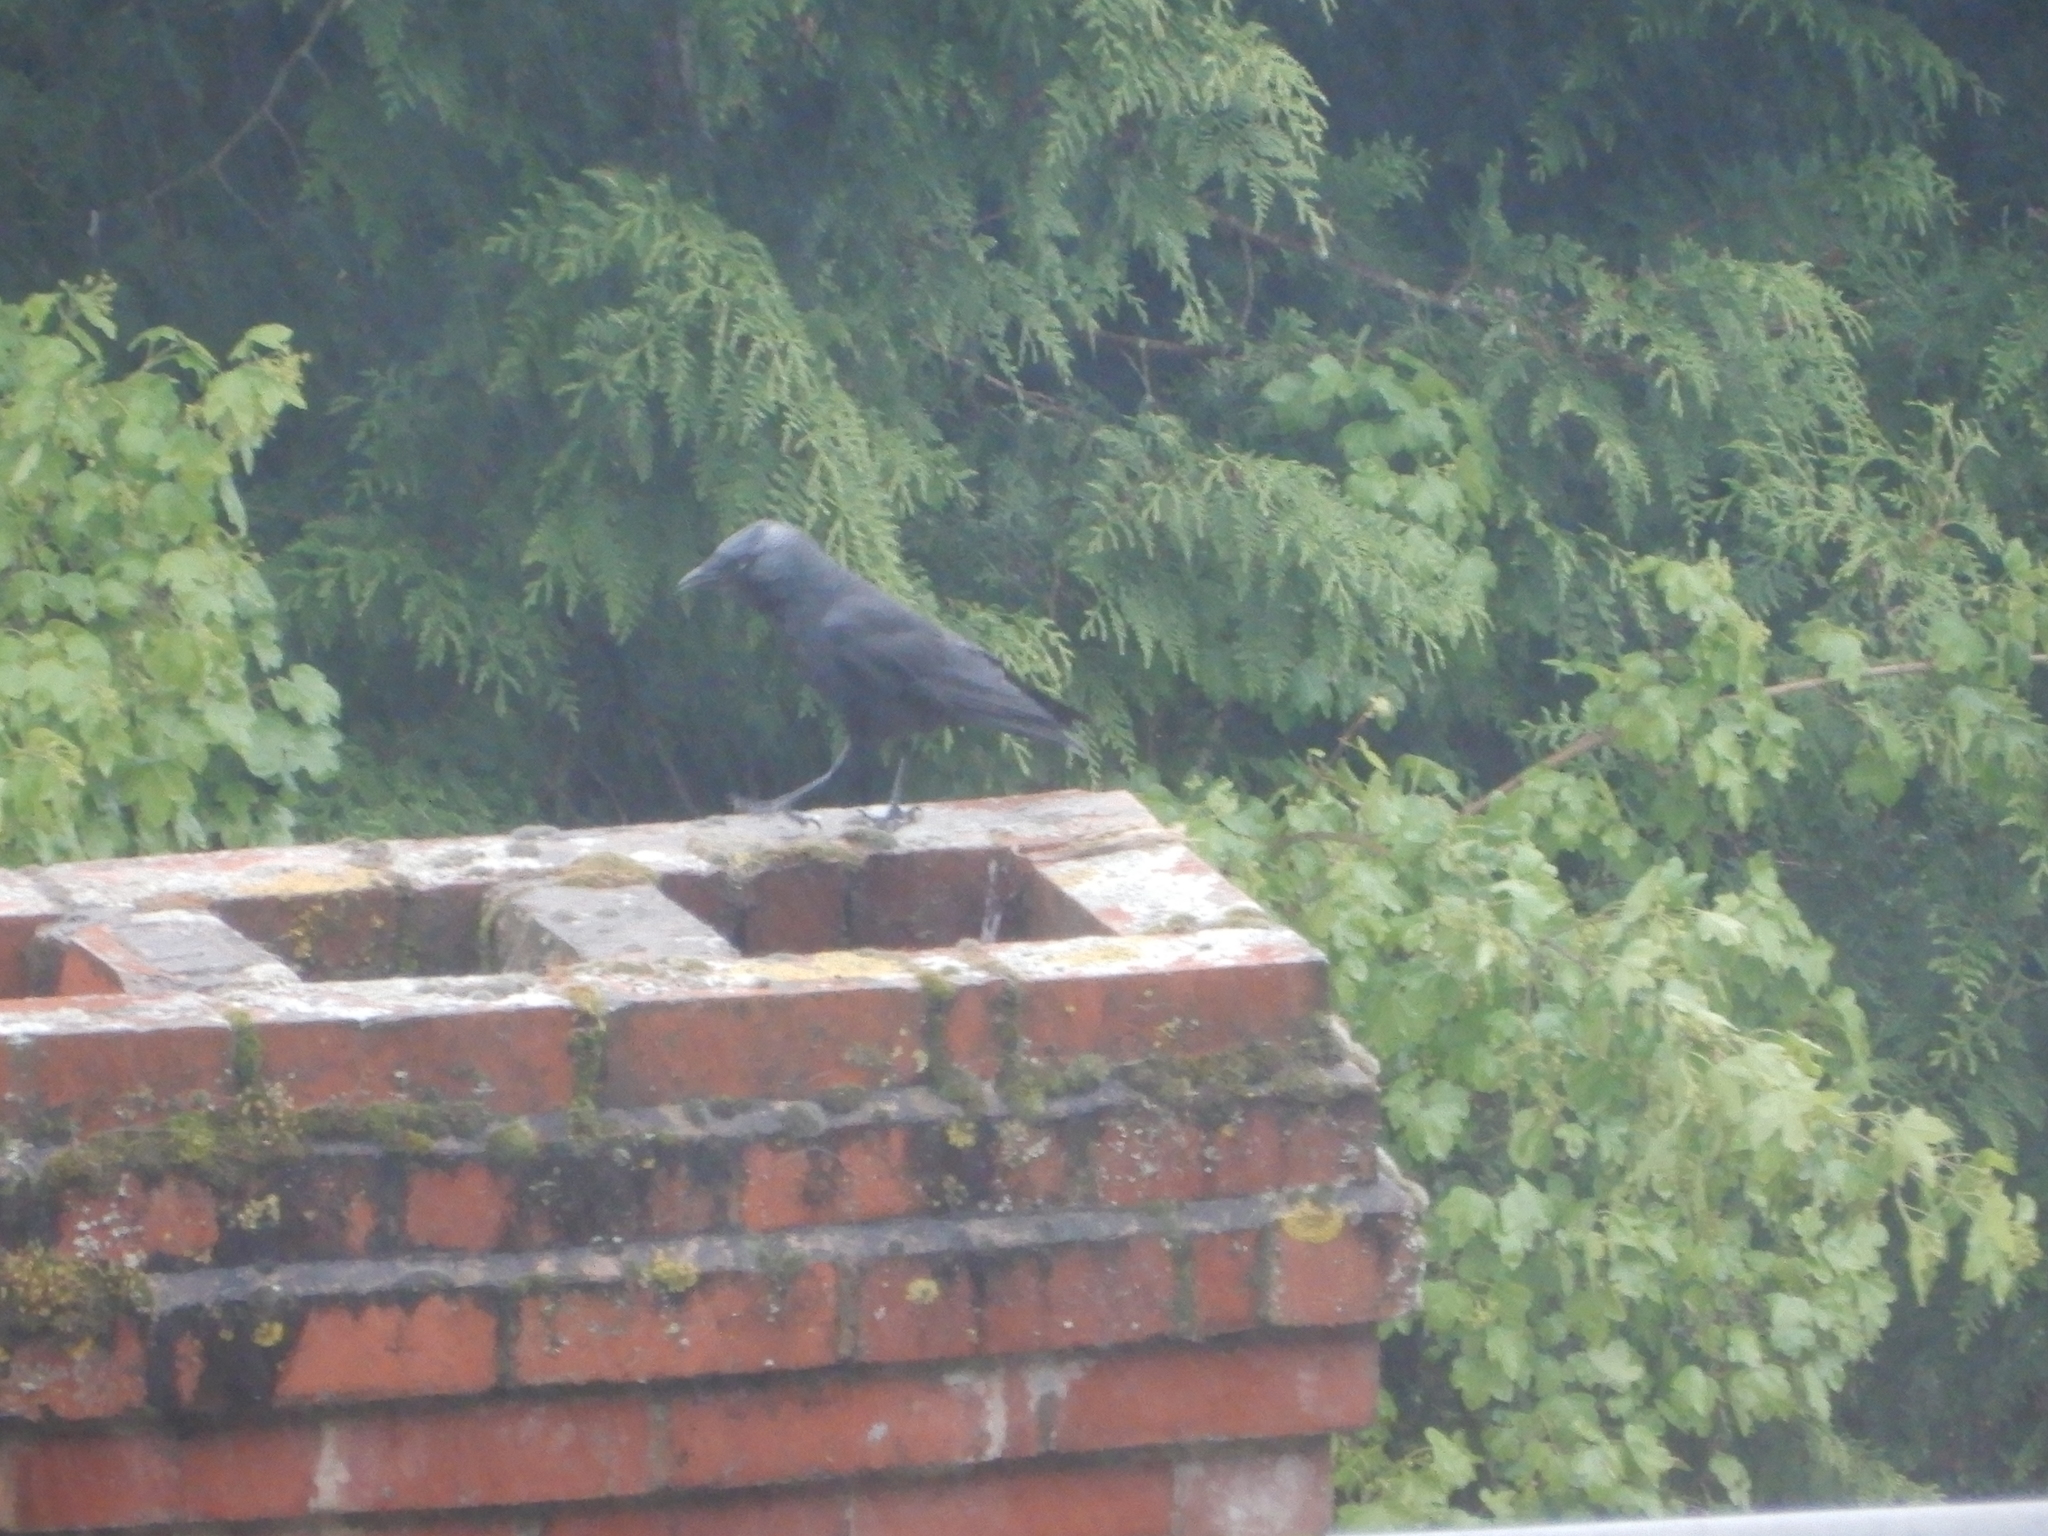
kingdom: Animalia
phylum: Chordata
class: Aves
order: Passeriformes
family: Corvidae
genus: Coloeus
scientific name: Coloeus monedula
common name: Western jackdaw
